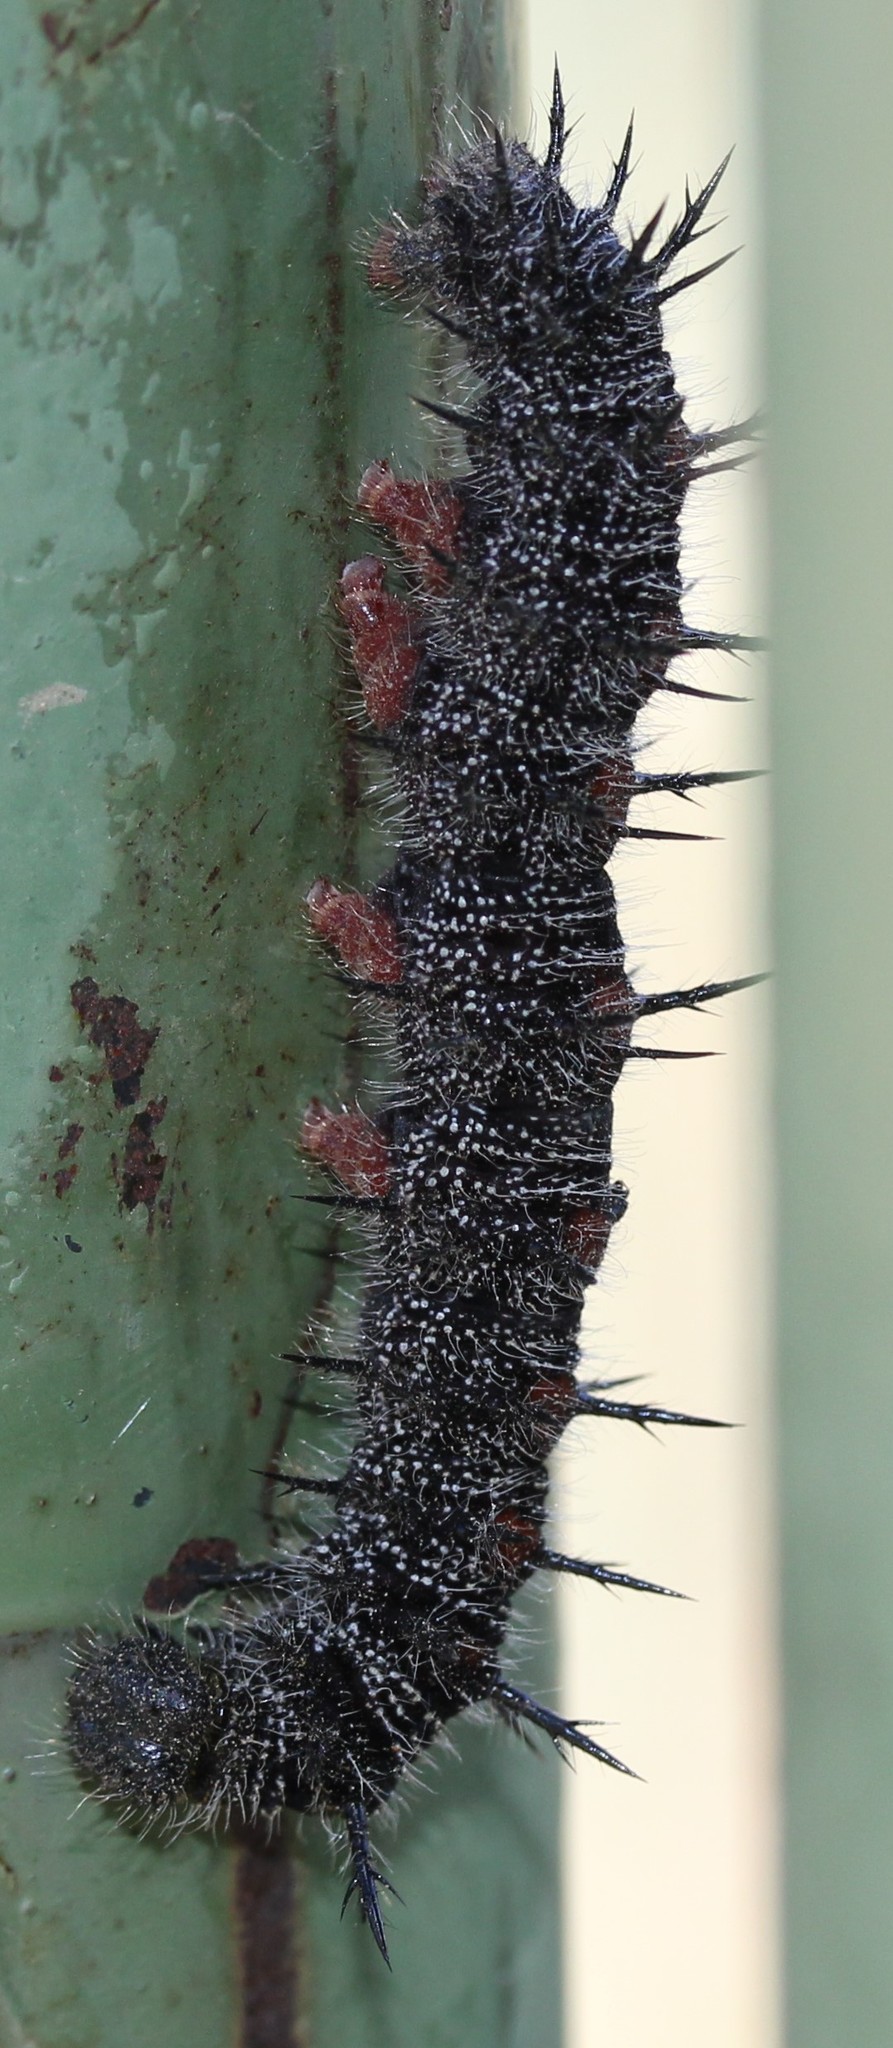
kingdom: Animalia
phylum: Arthropoda
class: Insecta
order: Lepidoptera
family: Nymphalidae
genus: Nymphalis
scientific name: Nymphalis antiopa
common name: Camberwell beauty
